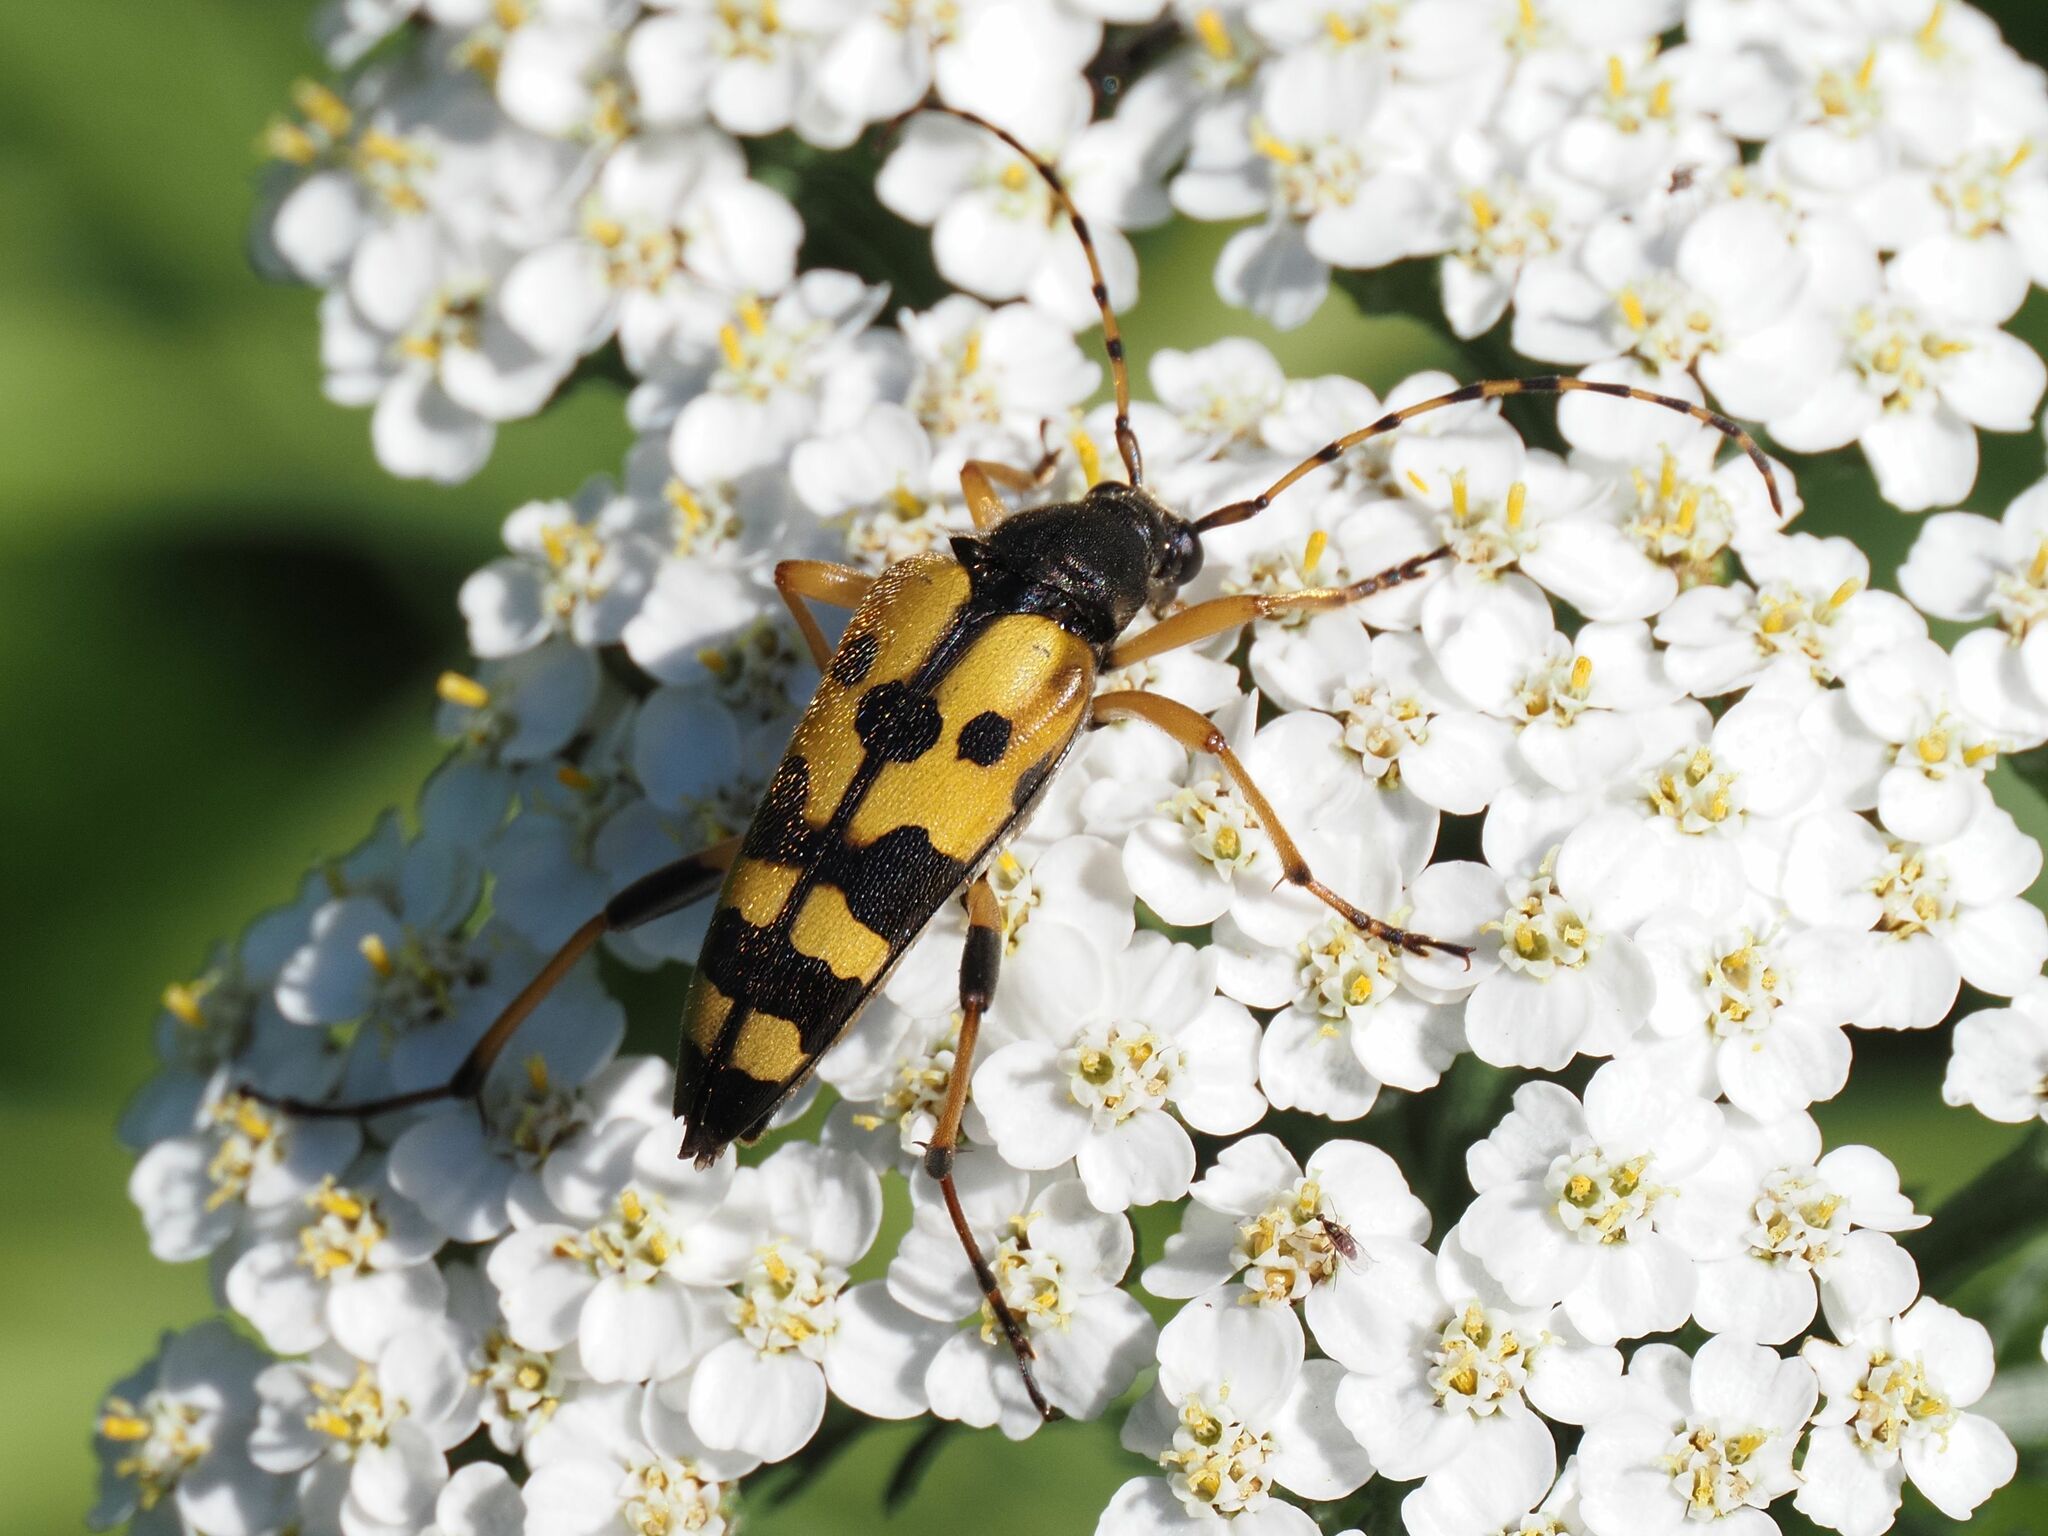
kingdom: Animalia
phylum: Arthropoda
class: Insecta
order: Coleoptera
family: Cerambycidae
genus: Rutpela
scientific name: Rutpela maculata
